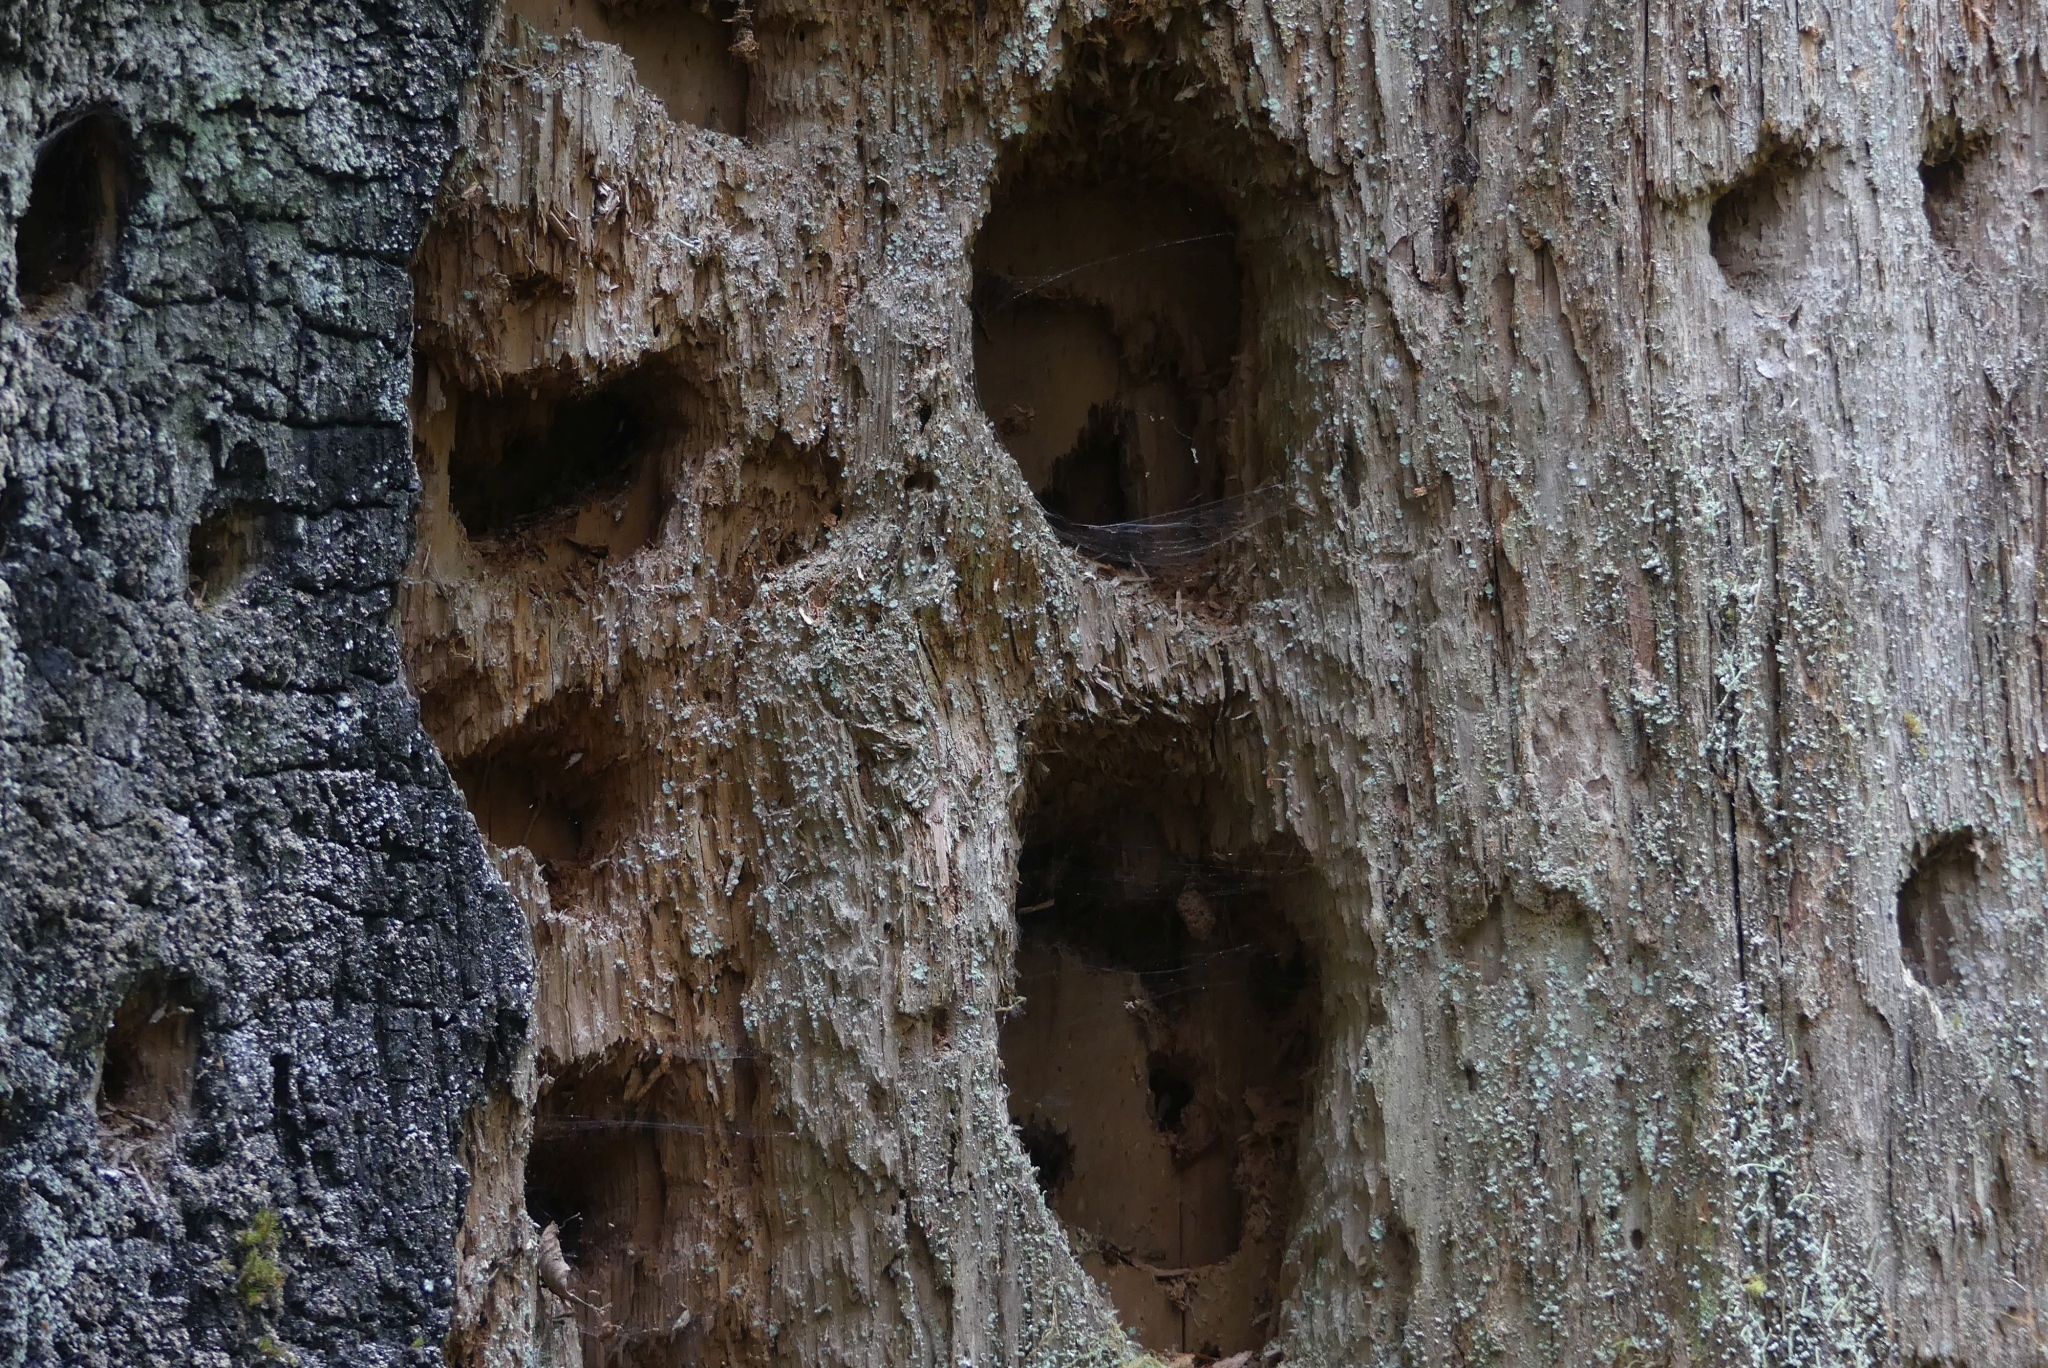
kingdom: Animalia
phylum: Chordata
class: Aves
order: Piciformes
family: Picidae
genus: Dryocopus
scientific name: Dryocopus pileatus
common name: Pileated woodpecker
